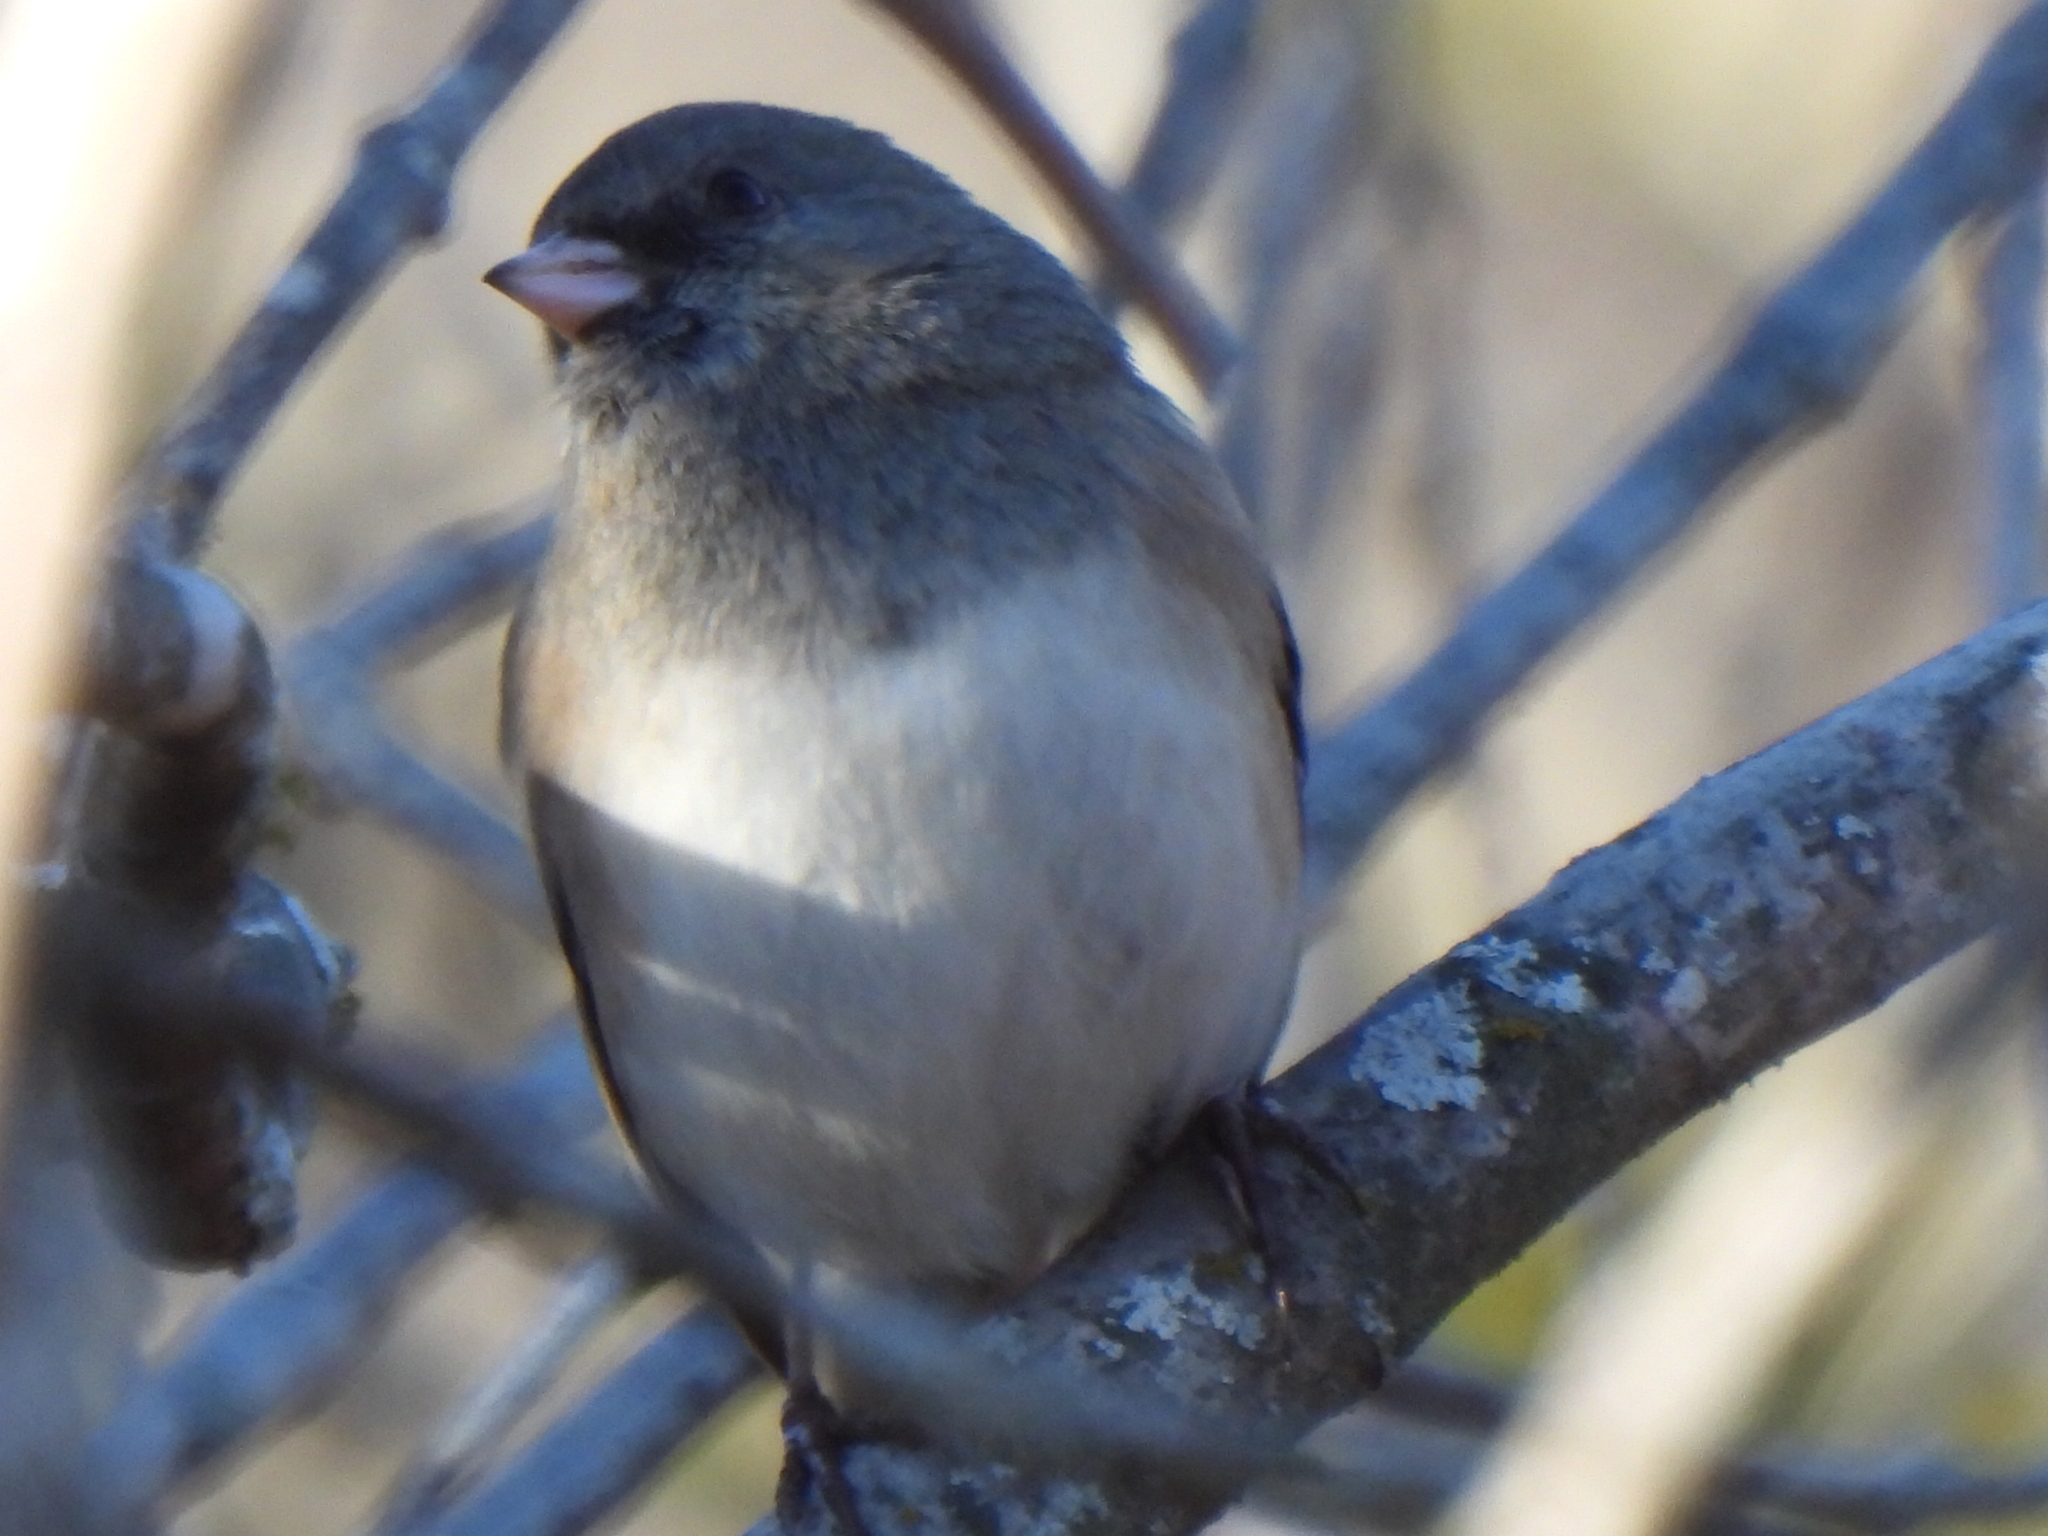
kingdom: Animalia
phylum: Chordata
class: Aves
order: Passeriformes
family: Passerellidae
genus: Junco
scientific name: Junco hyemalis
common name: Dark-eyed junco
